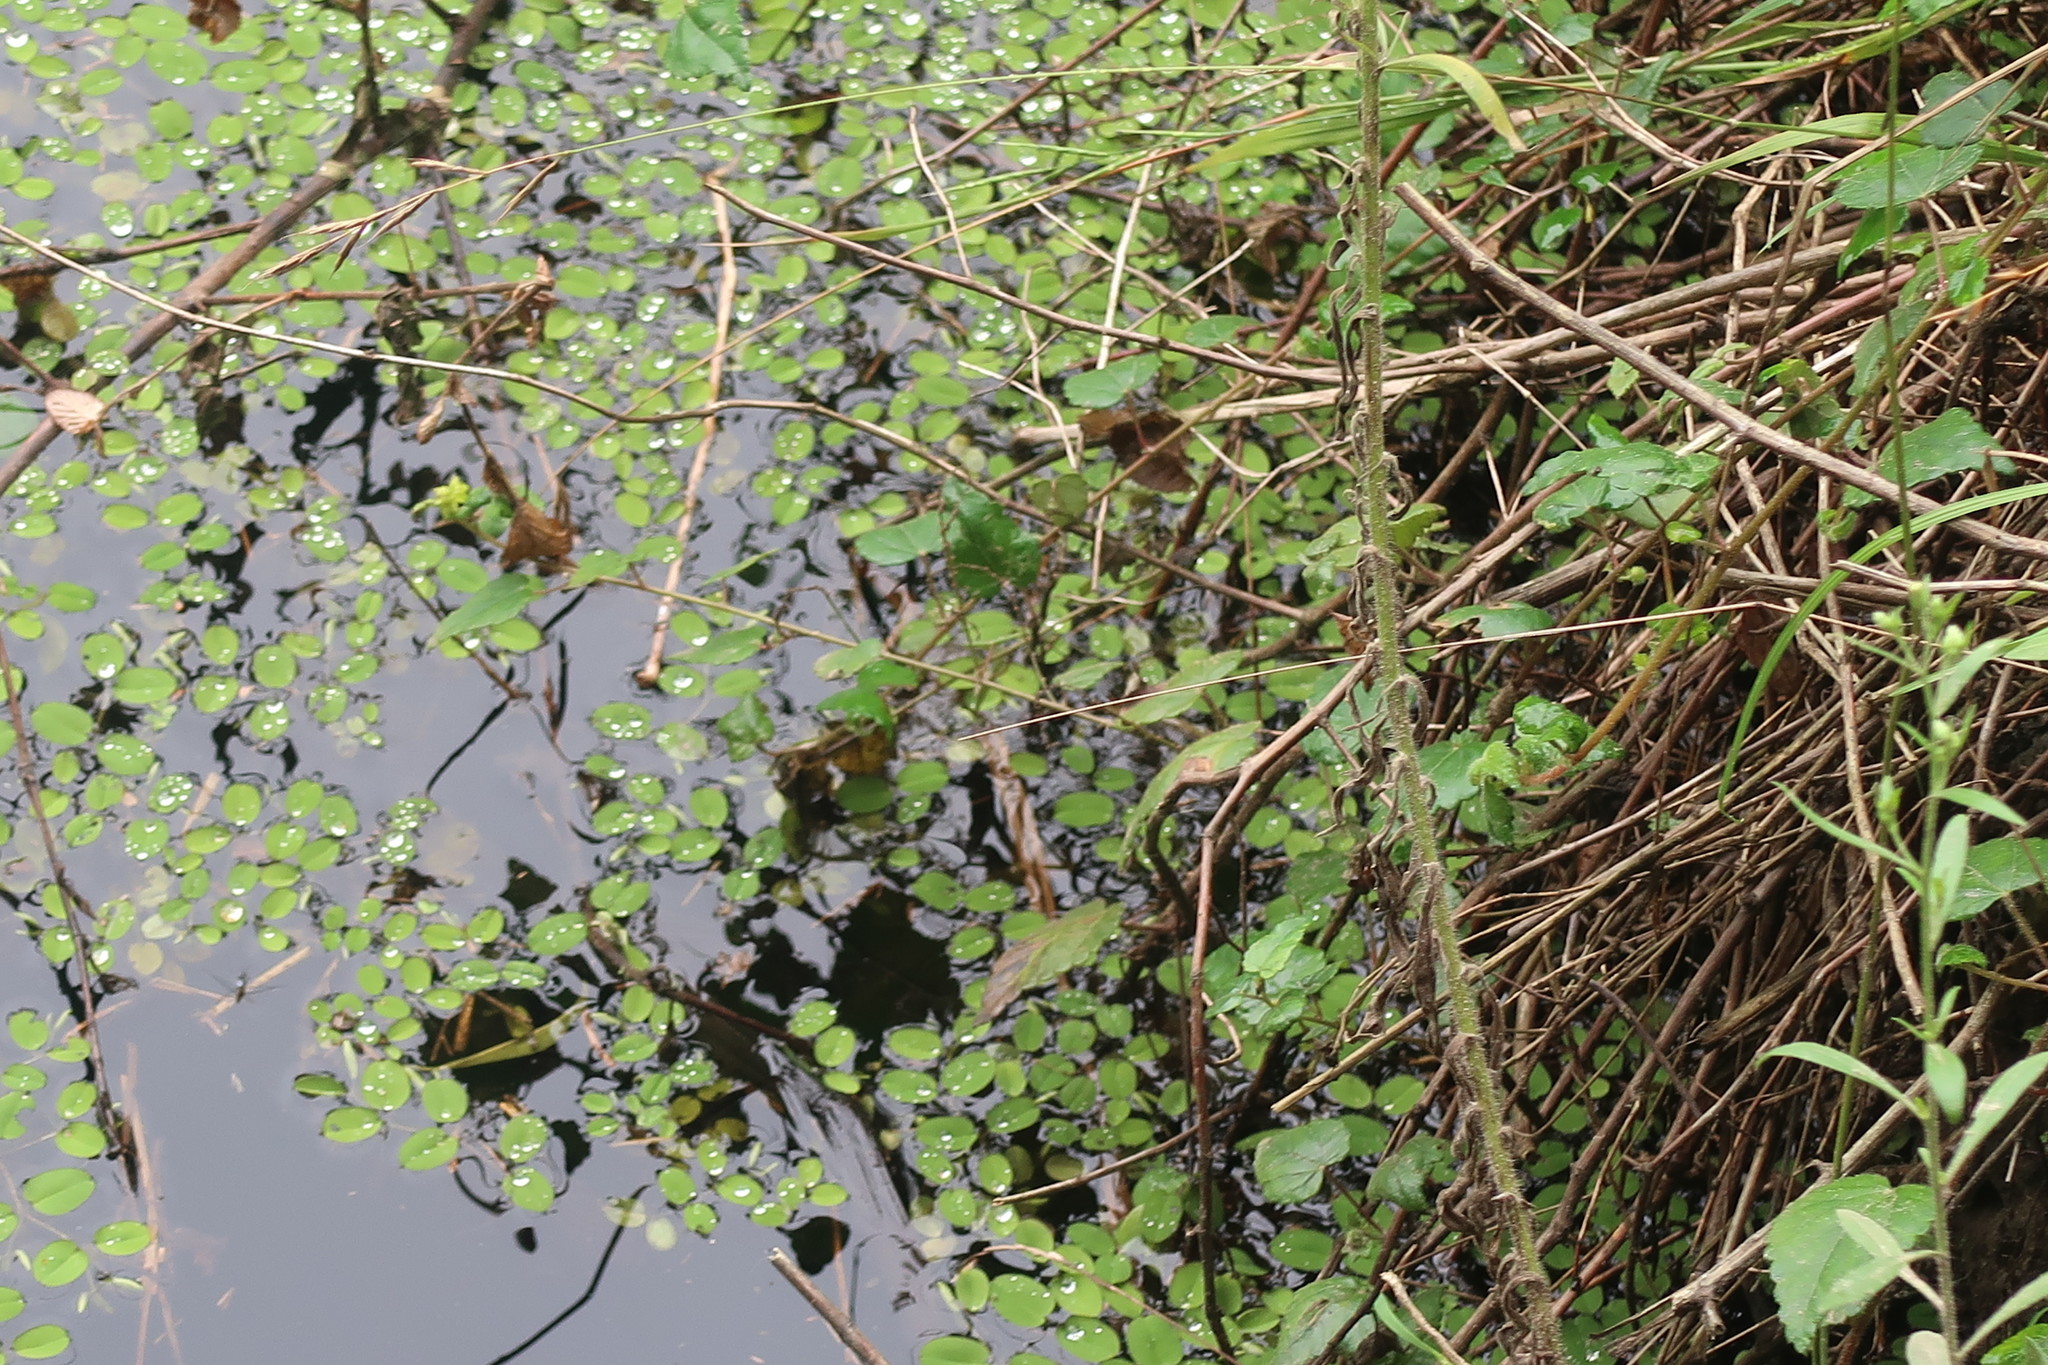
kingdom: Plantae
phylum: Tracheophyta
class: Polypodiopsida
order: Salviniales
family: Salviniaceae
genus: Salvinia
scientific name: Salvinia molesta
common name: Kariba weed
